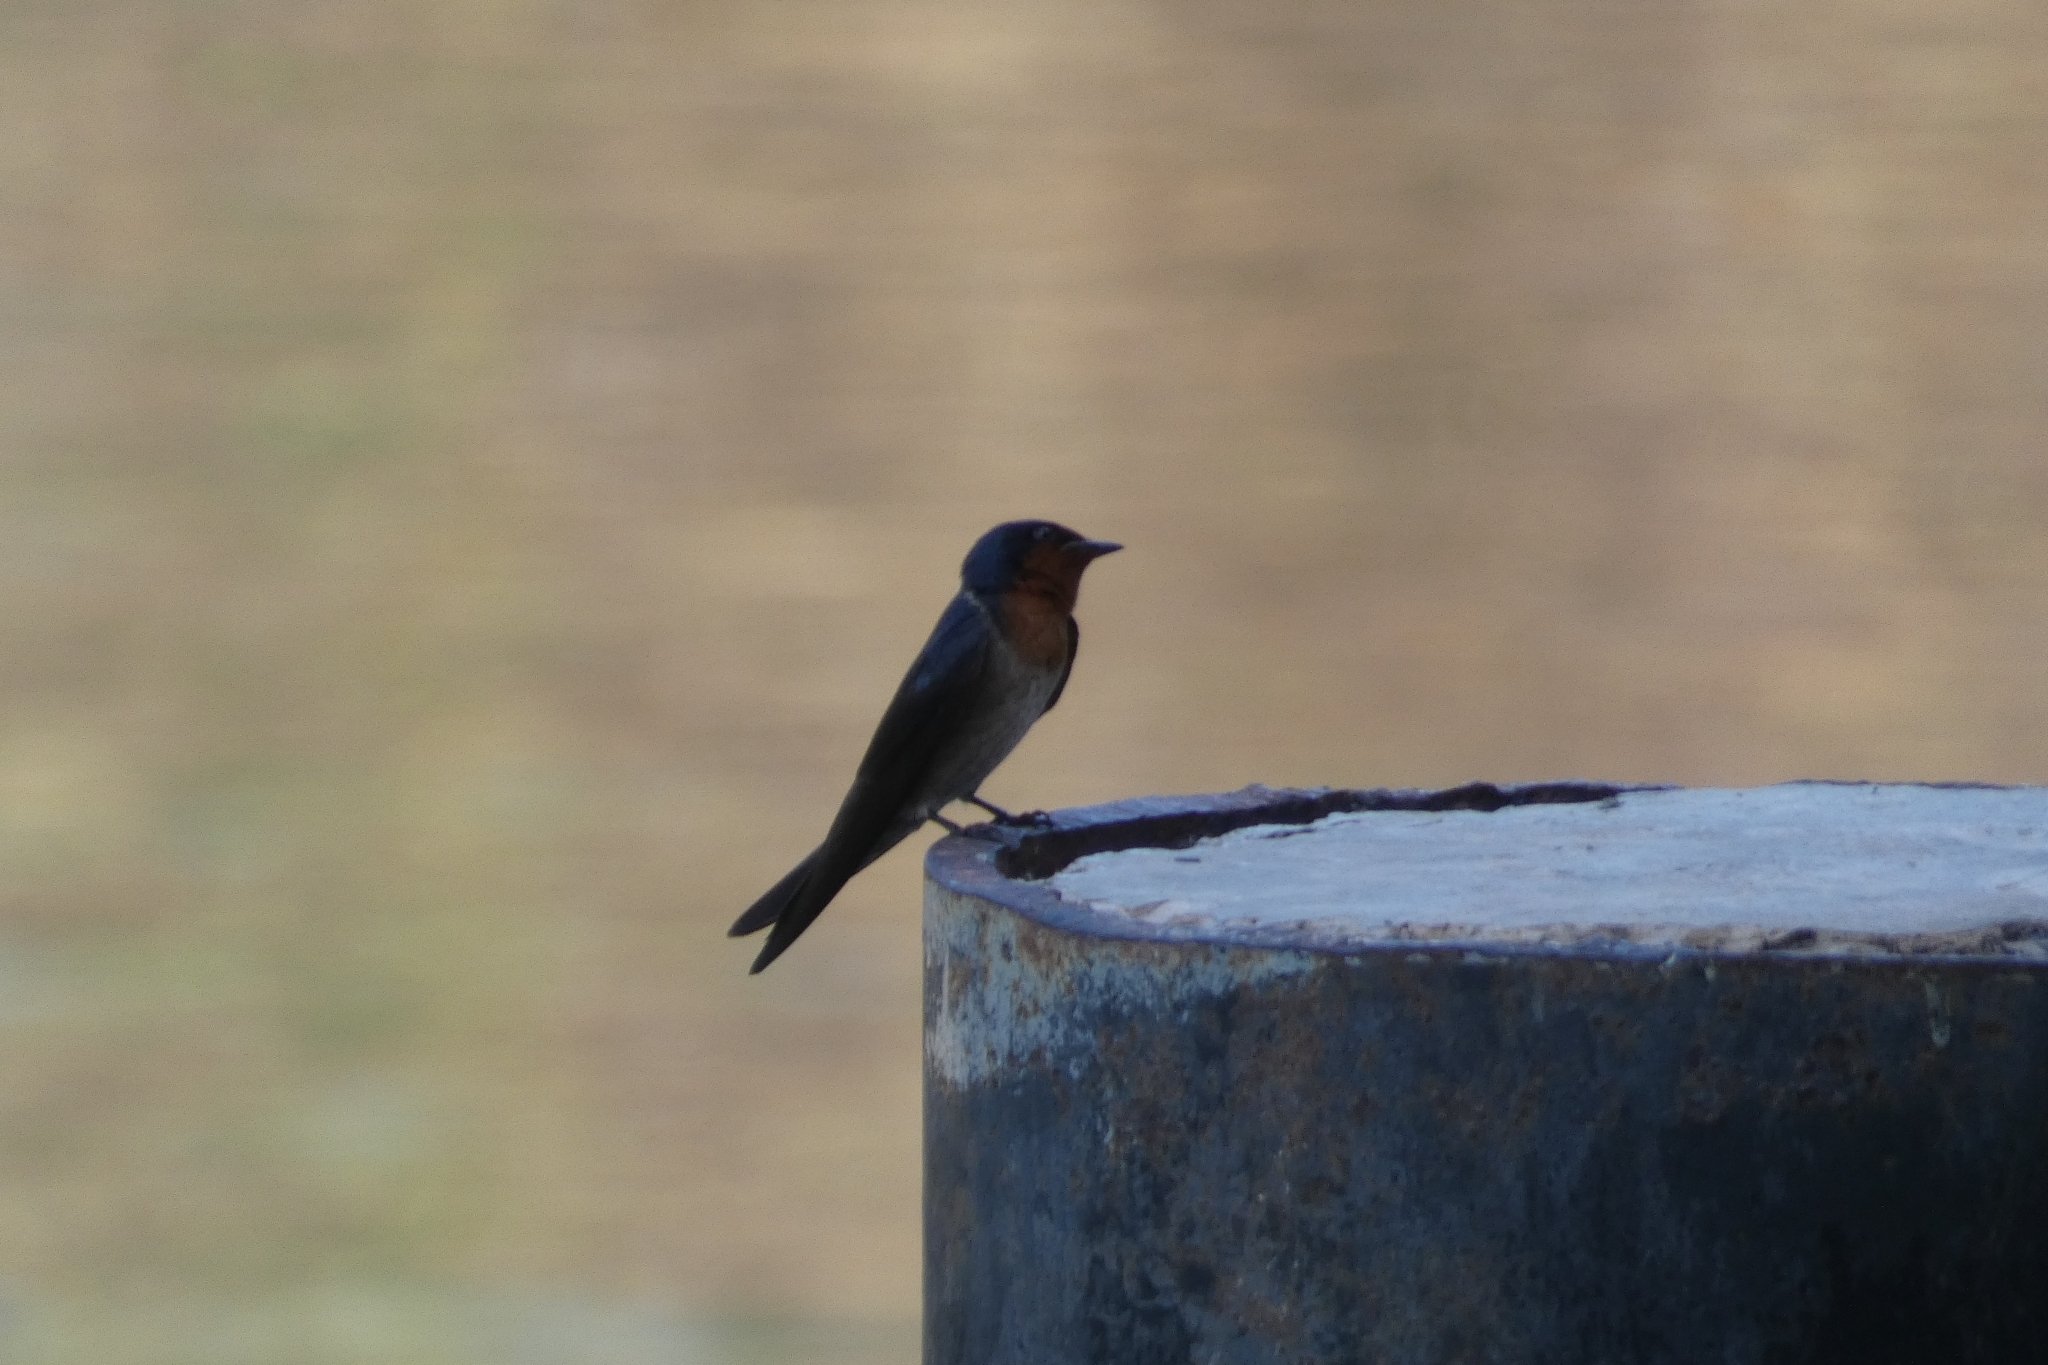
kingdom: Animalia
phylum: Chordata
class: Aves
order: Passeriformes
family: Hirundinidae
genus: Hirundo
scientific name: Hirundo tahitica
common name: Pacific swallow
